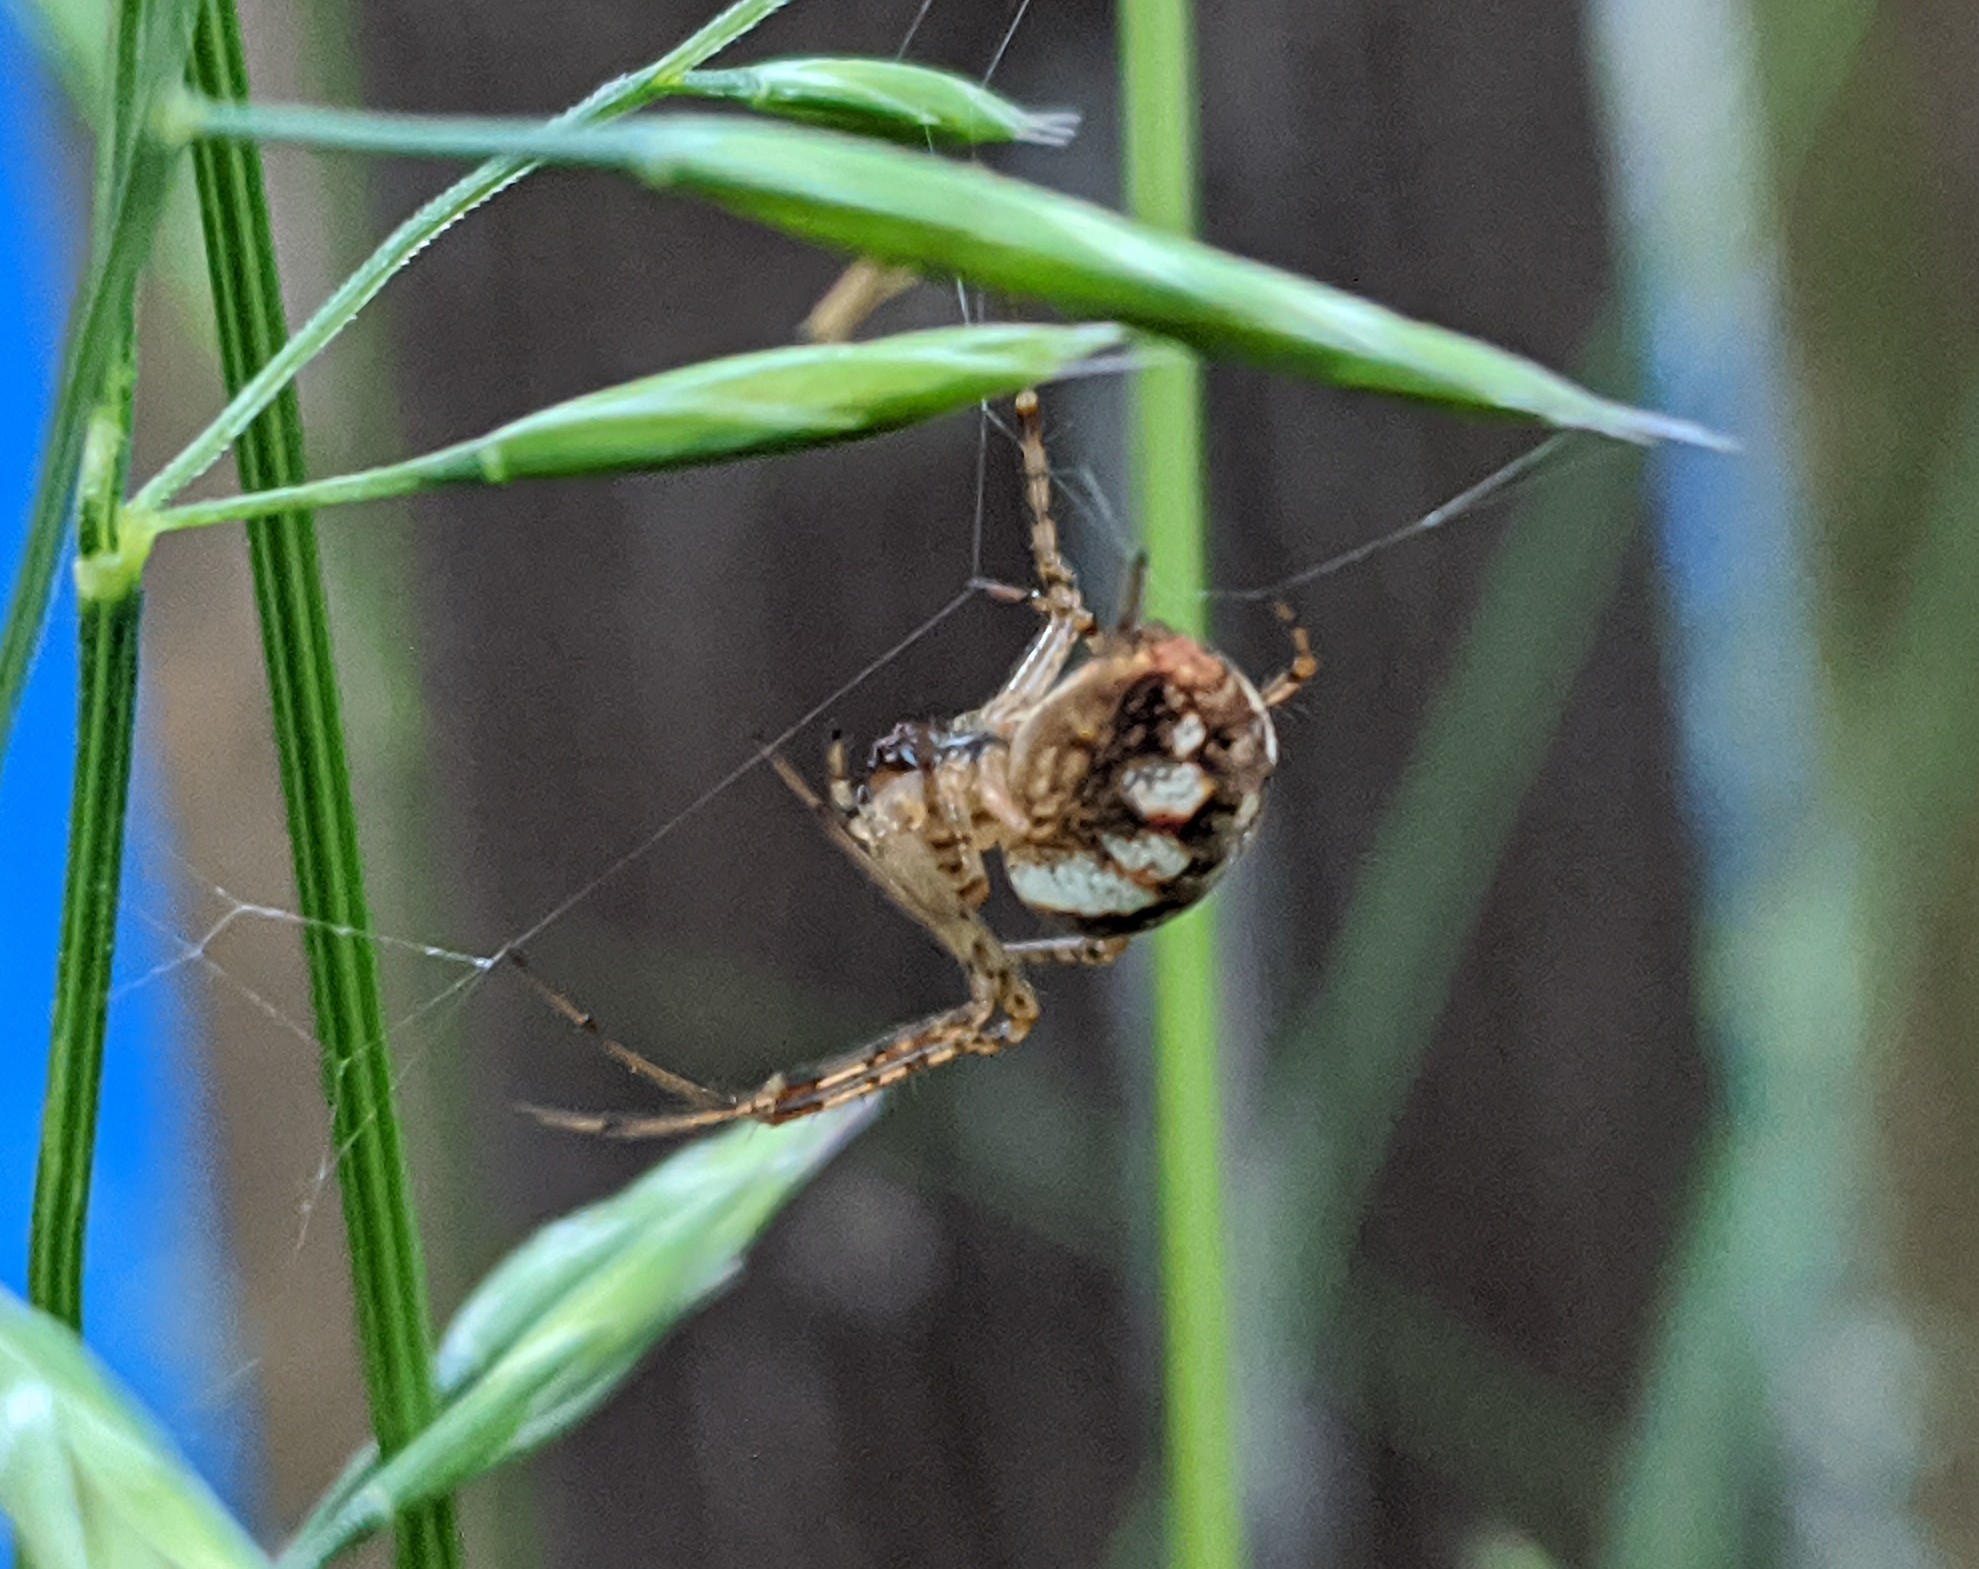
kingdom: Animalia
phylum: Arthropoda
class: Arachnida
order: Araneae
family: Tetragnathidae
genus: Metellina
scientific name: Metellina
